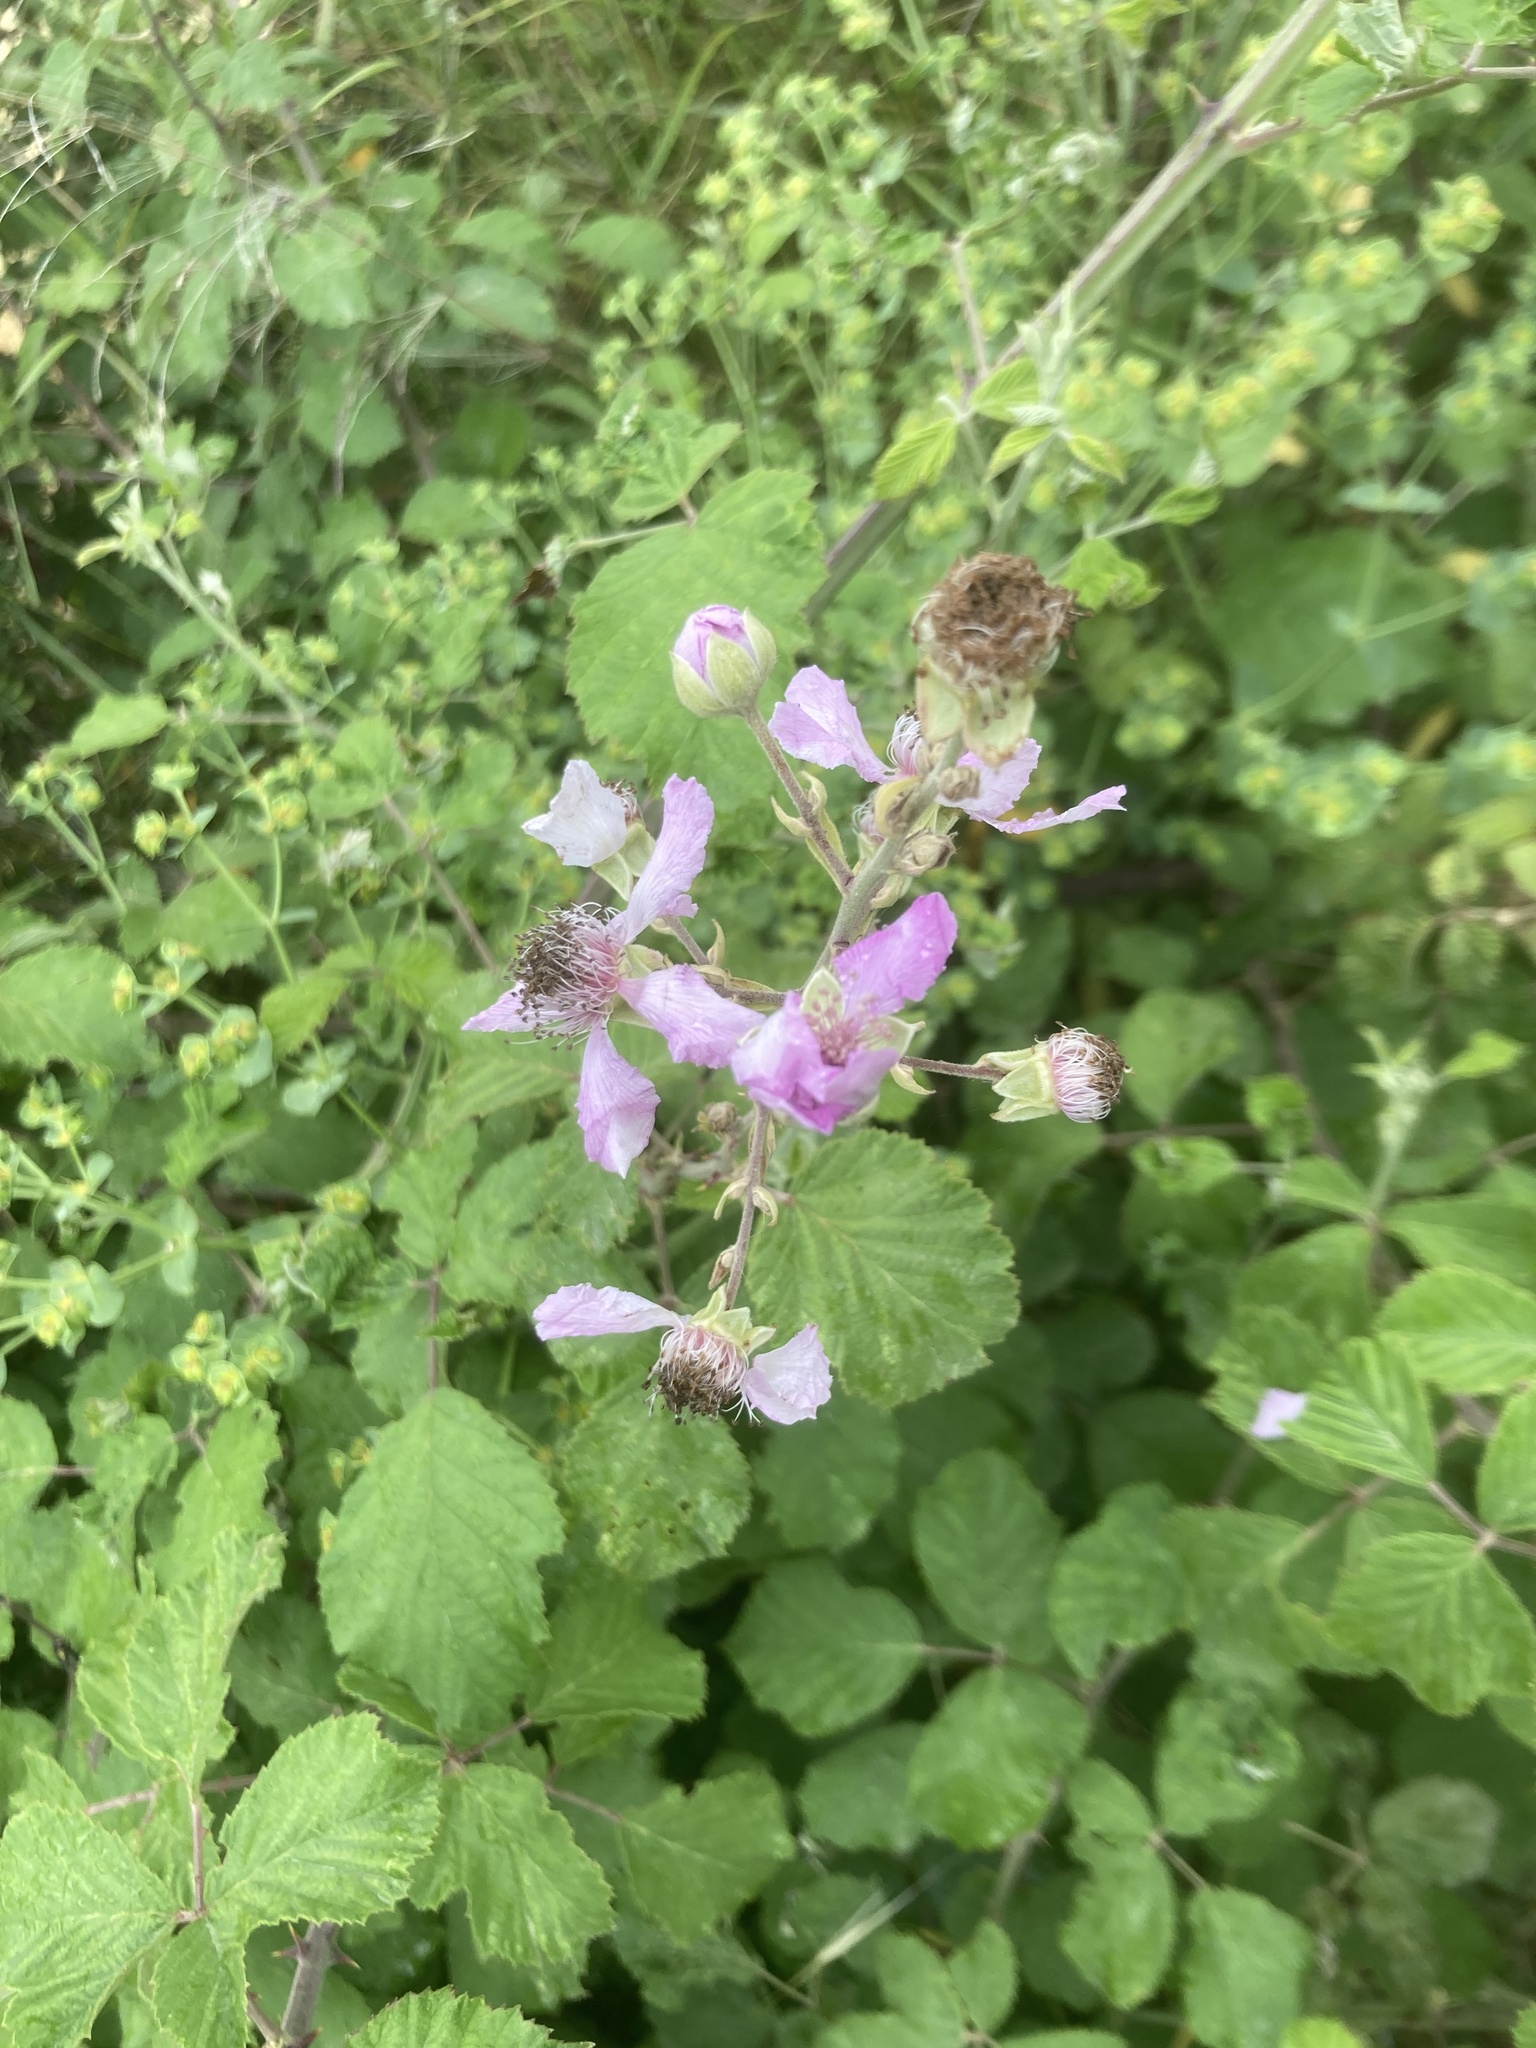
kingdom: Plantae
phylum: Tracheophyta
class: Magnoliopsida
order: Rosales
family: Rosaceae
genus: Rubus
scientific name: Rubus sanctus
